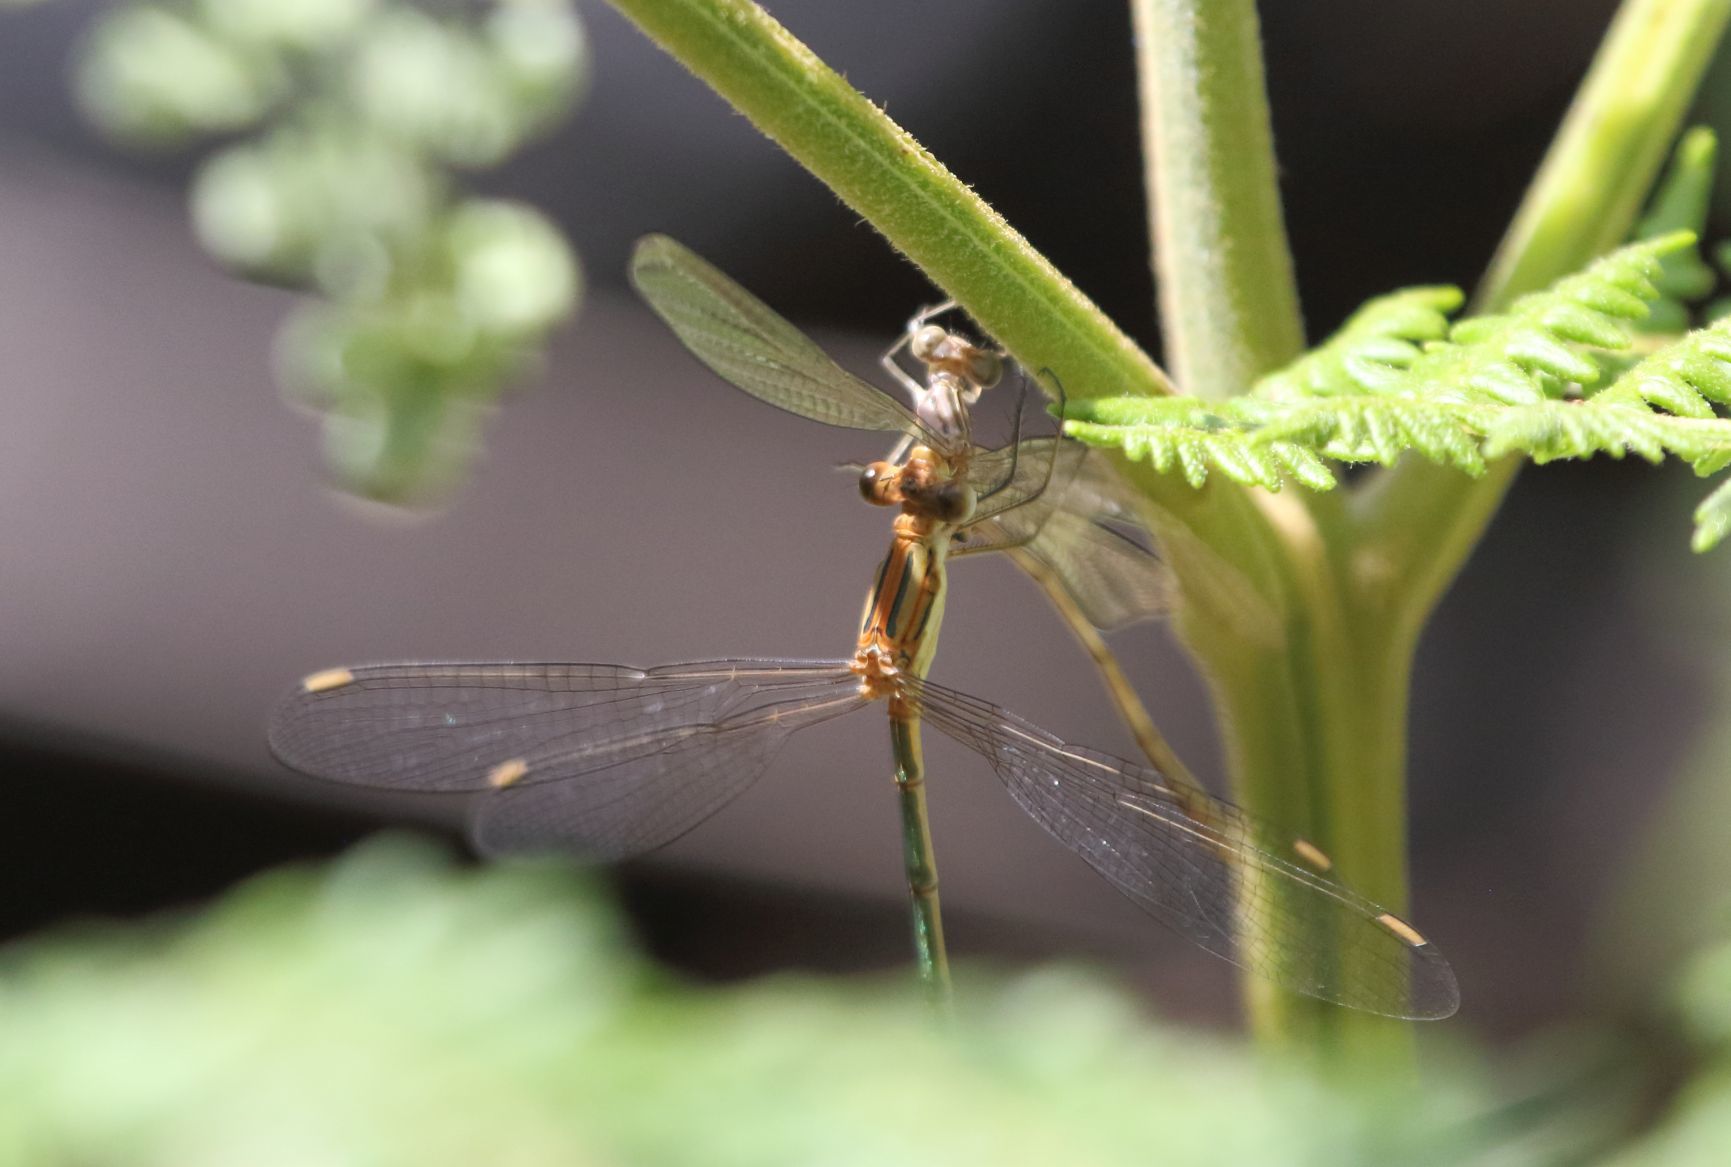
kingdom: Animalia
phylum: Arthropoda
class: Insecta
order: Odonata
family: Lestidae
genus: Lestes
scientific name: Lestes plagiatus
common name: Highland spreadwing
